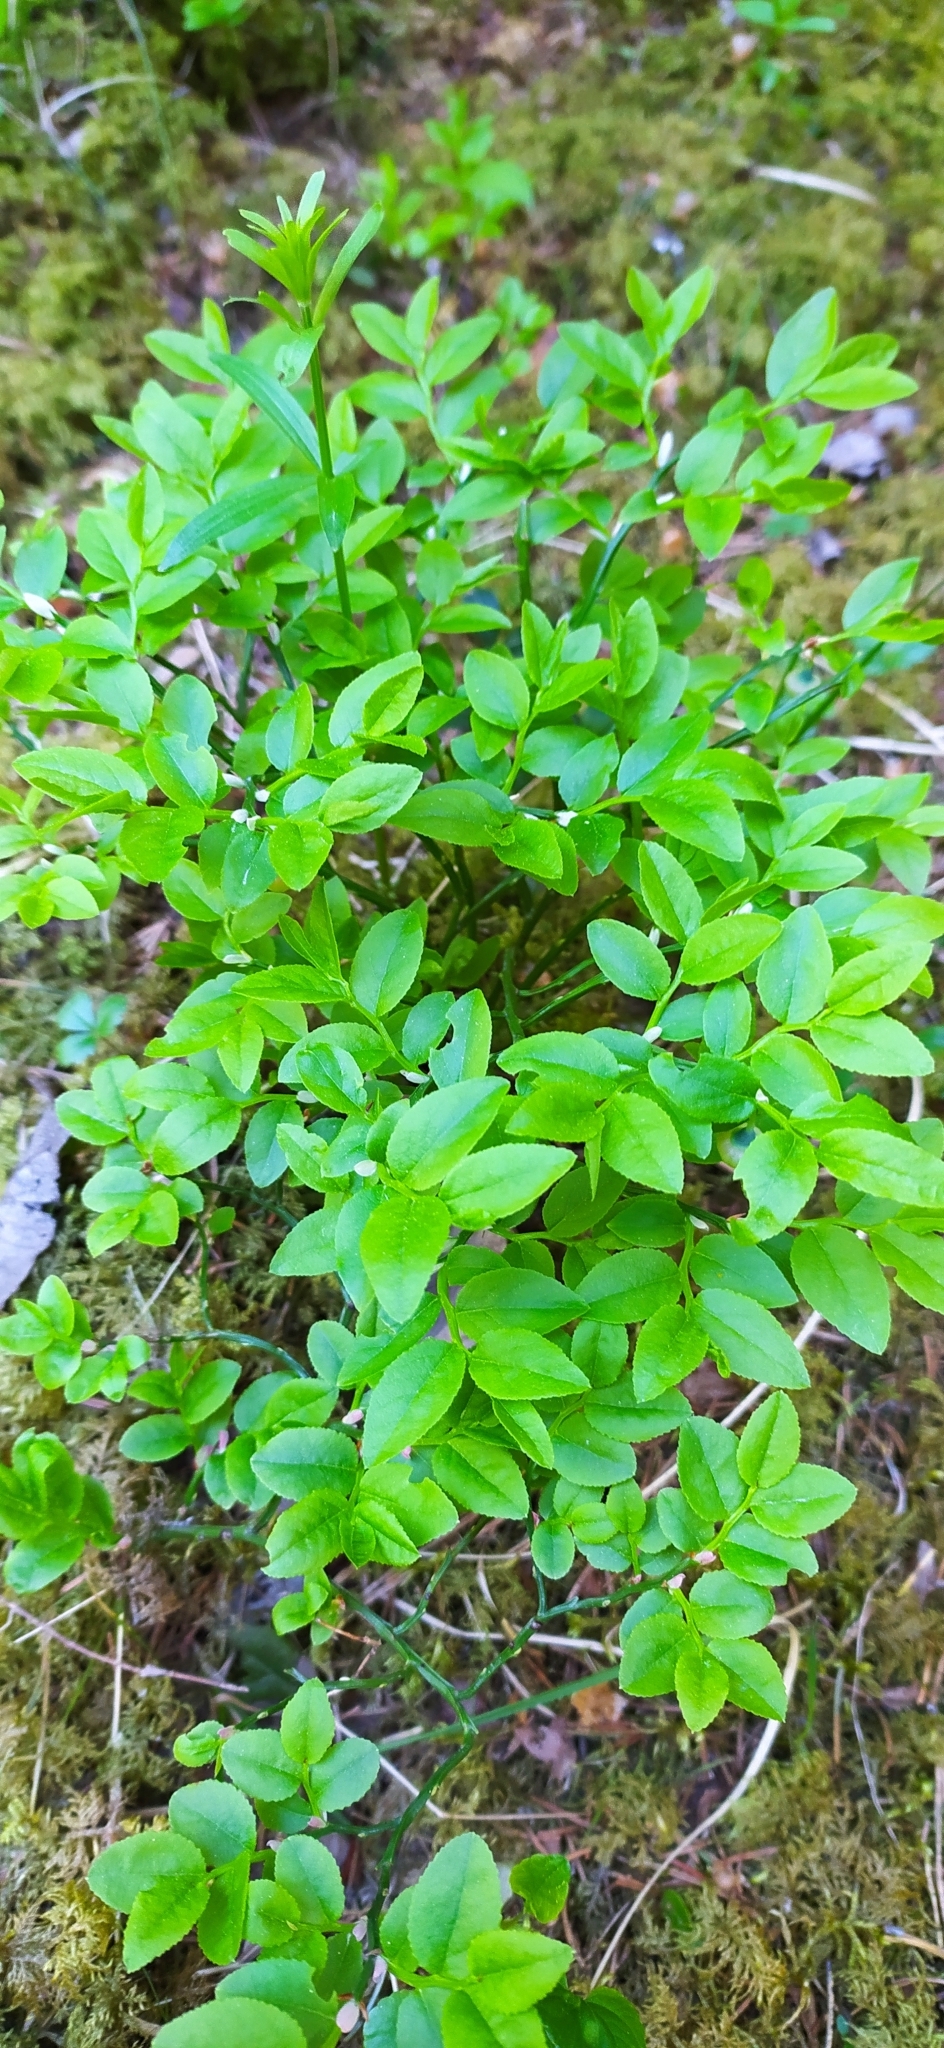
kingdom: Plantae
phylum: Tracheophyta
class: Magnoliopsida
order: Ericales
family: Ericaceae
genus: Vaccinium
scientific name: Vaccinium myrtillus
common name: Bilberry
